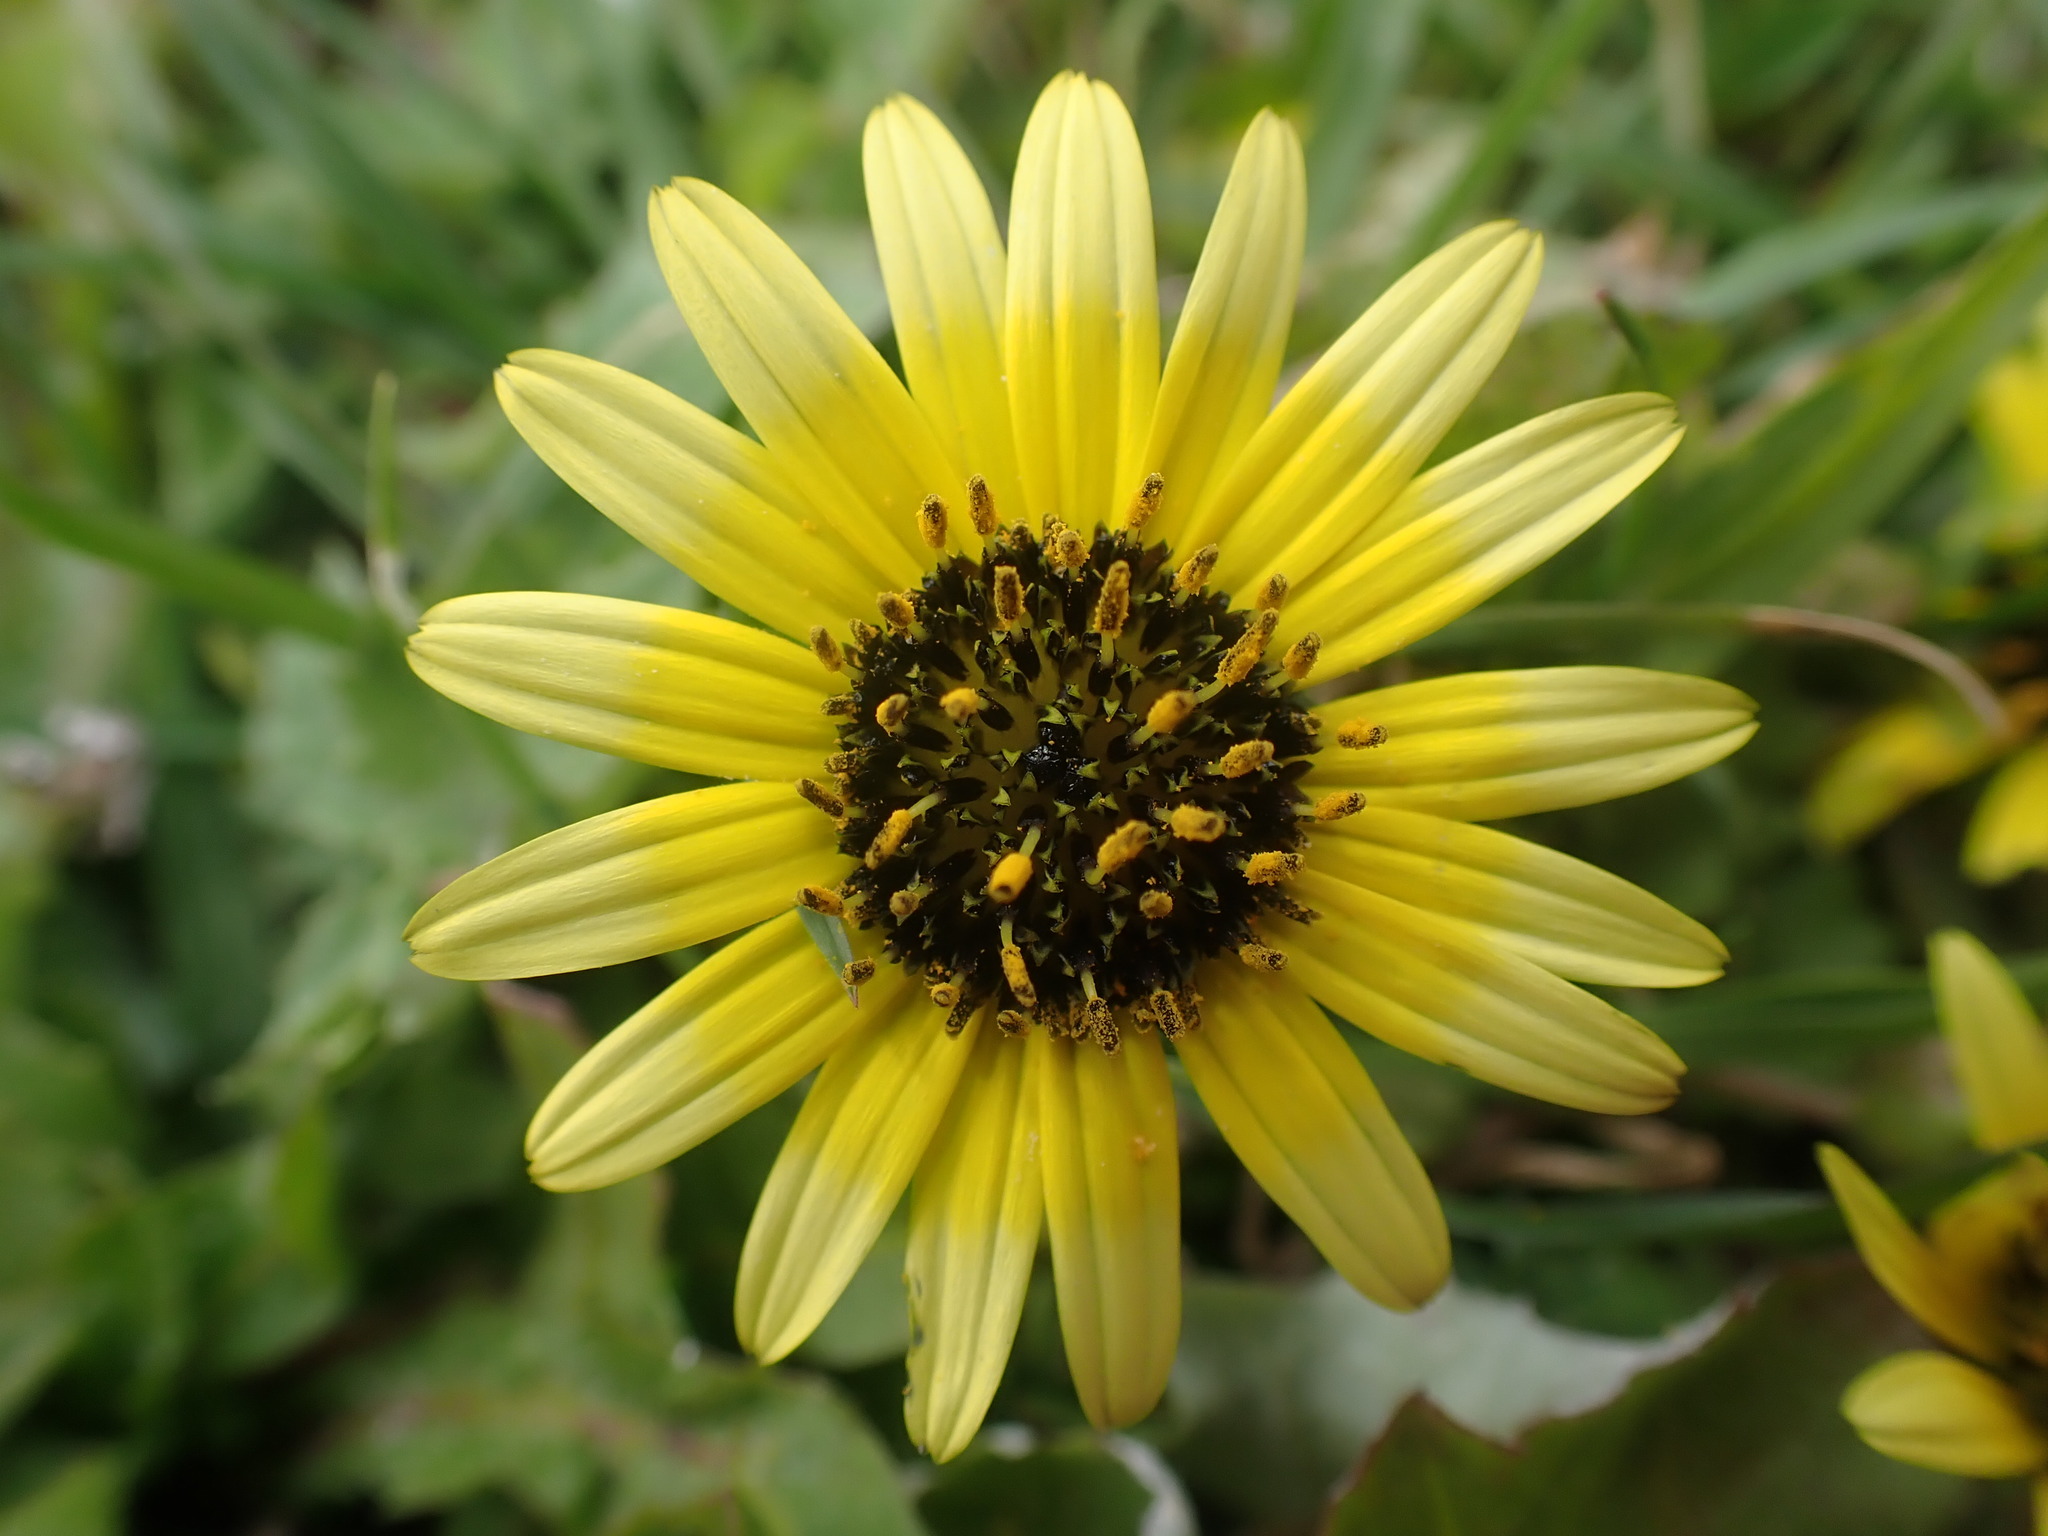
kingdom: Plantae
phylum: Tracheophyta
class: Magnoliopsida
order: Asterales
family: Asteraceae
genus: Arctotheca
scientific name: Arctotheca calendula
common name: Capeweed
